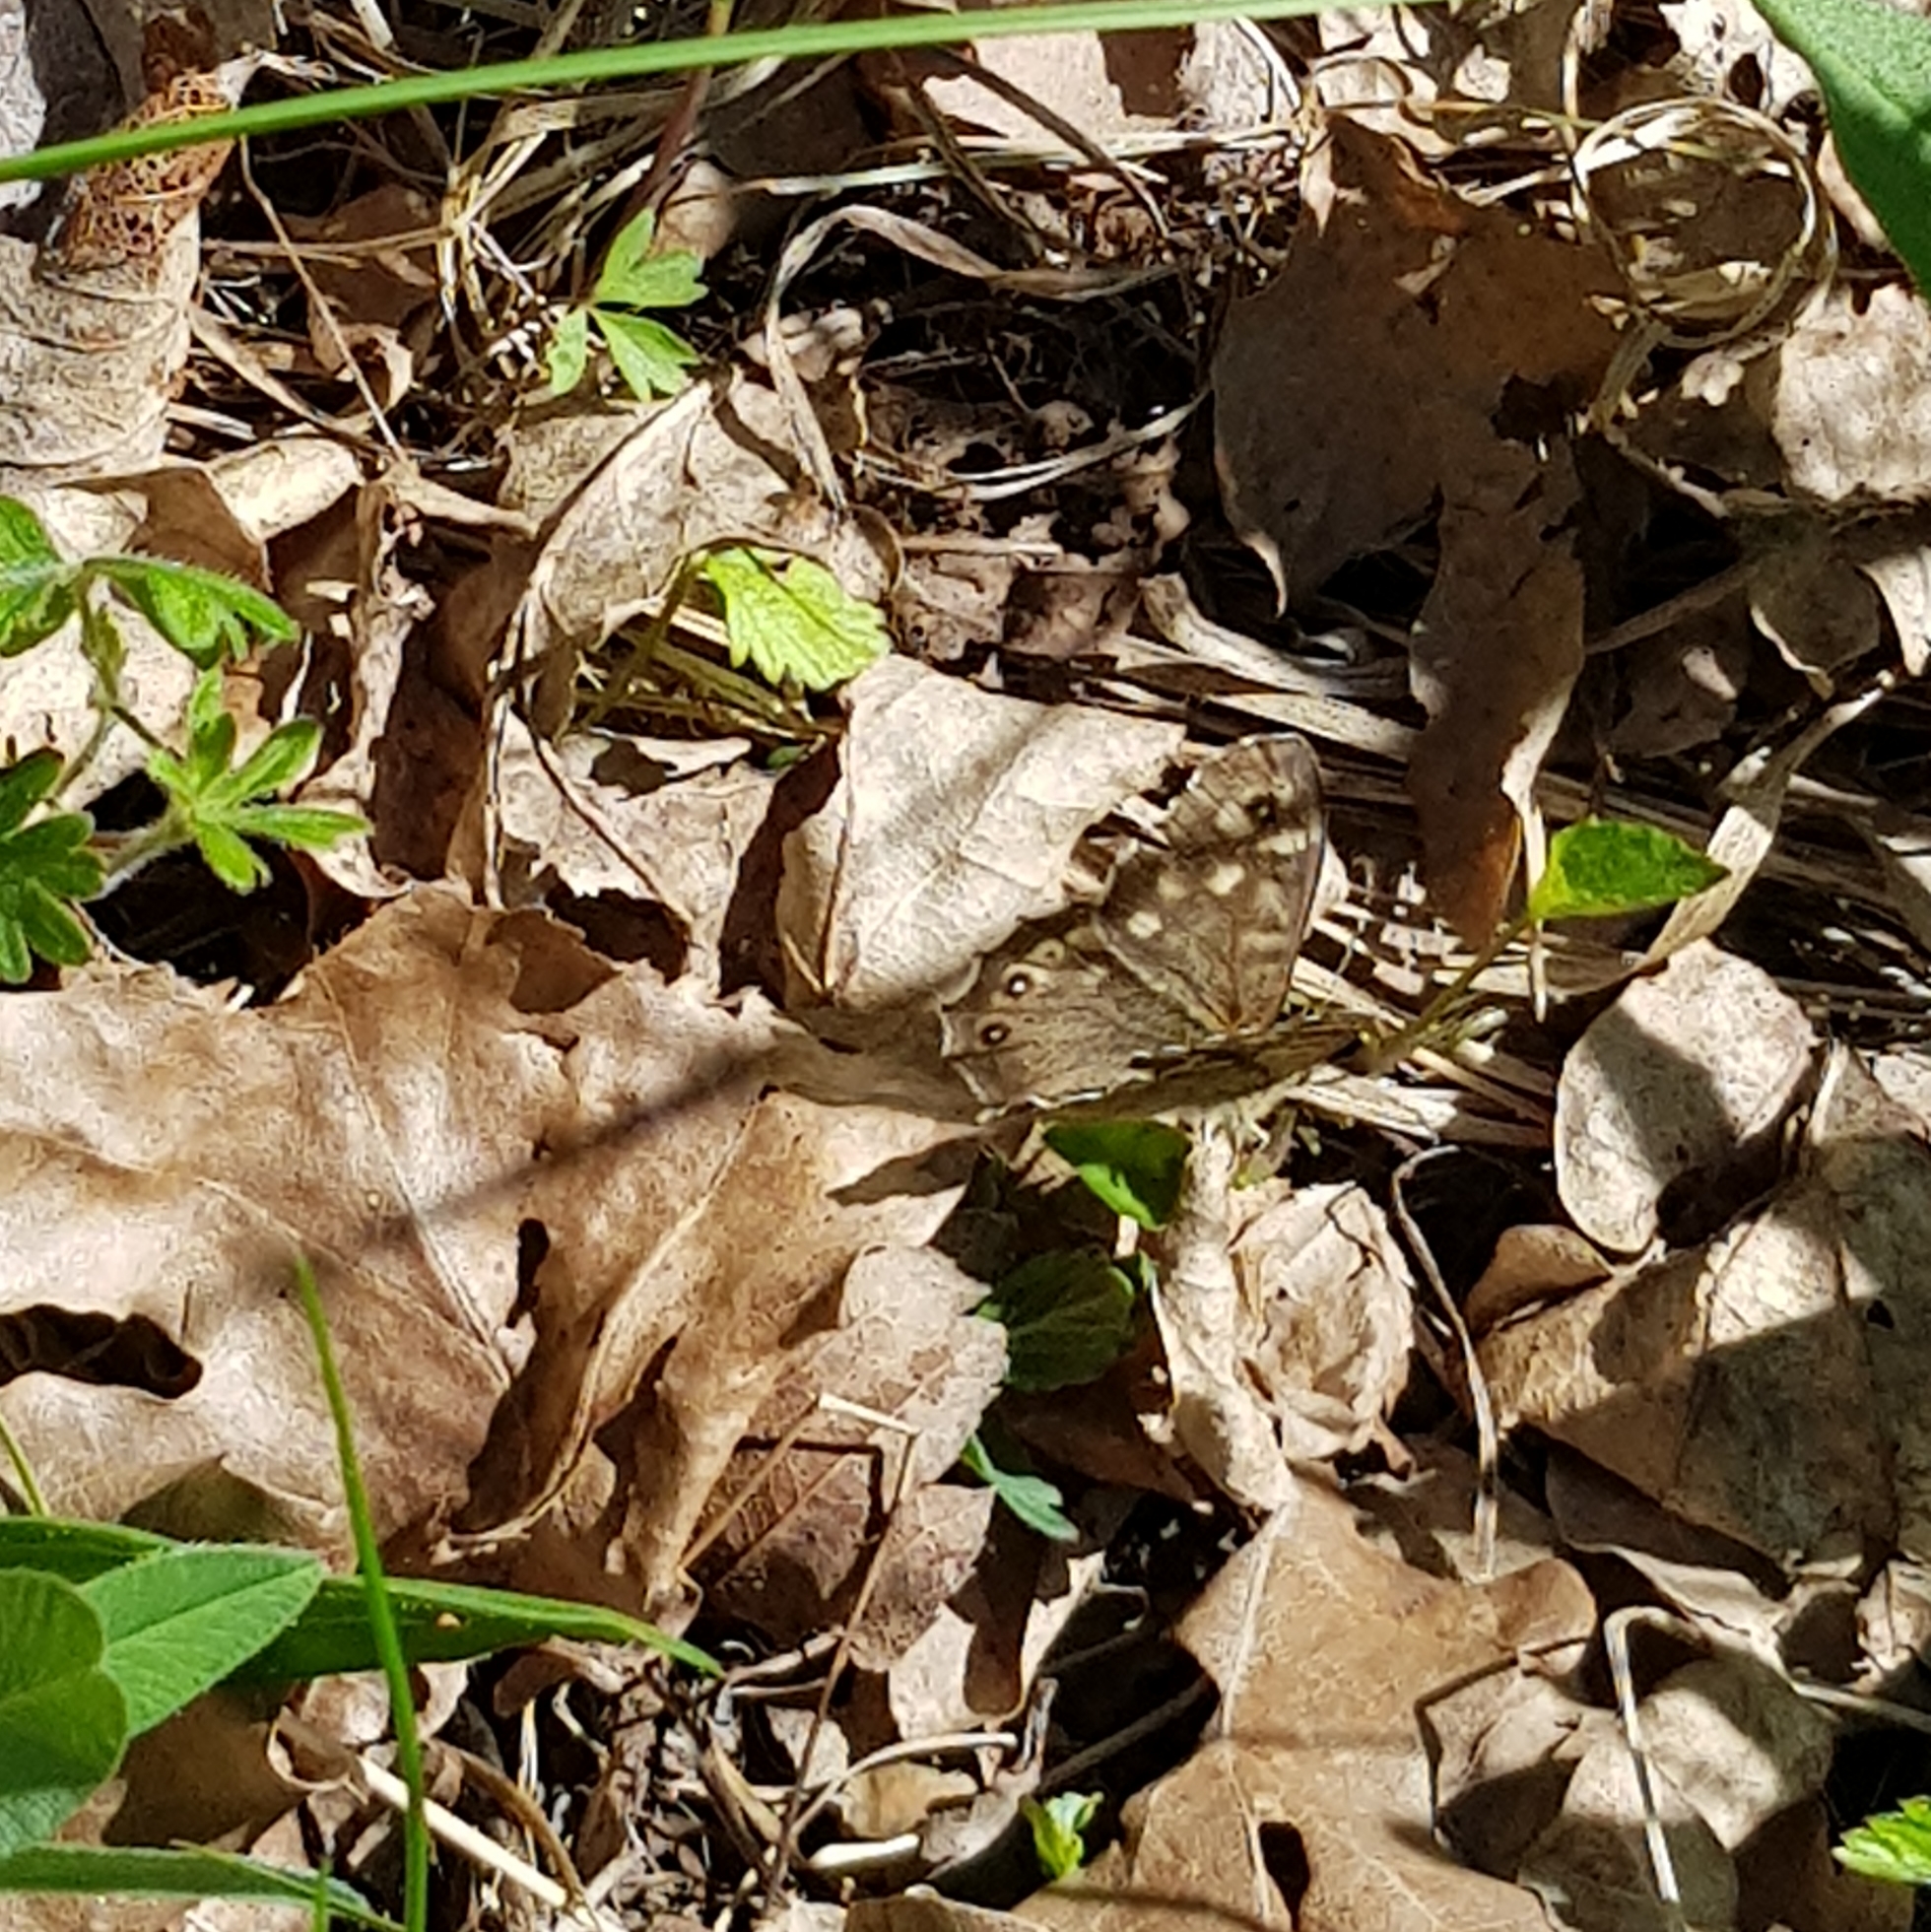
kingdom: Animalia
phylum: Arthropoda
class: Insecta
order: Lepidoptera
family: Nymphalidae
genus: Pararge
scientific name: Pararge aegeria
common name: Speckled wood
